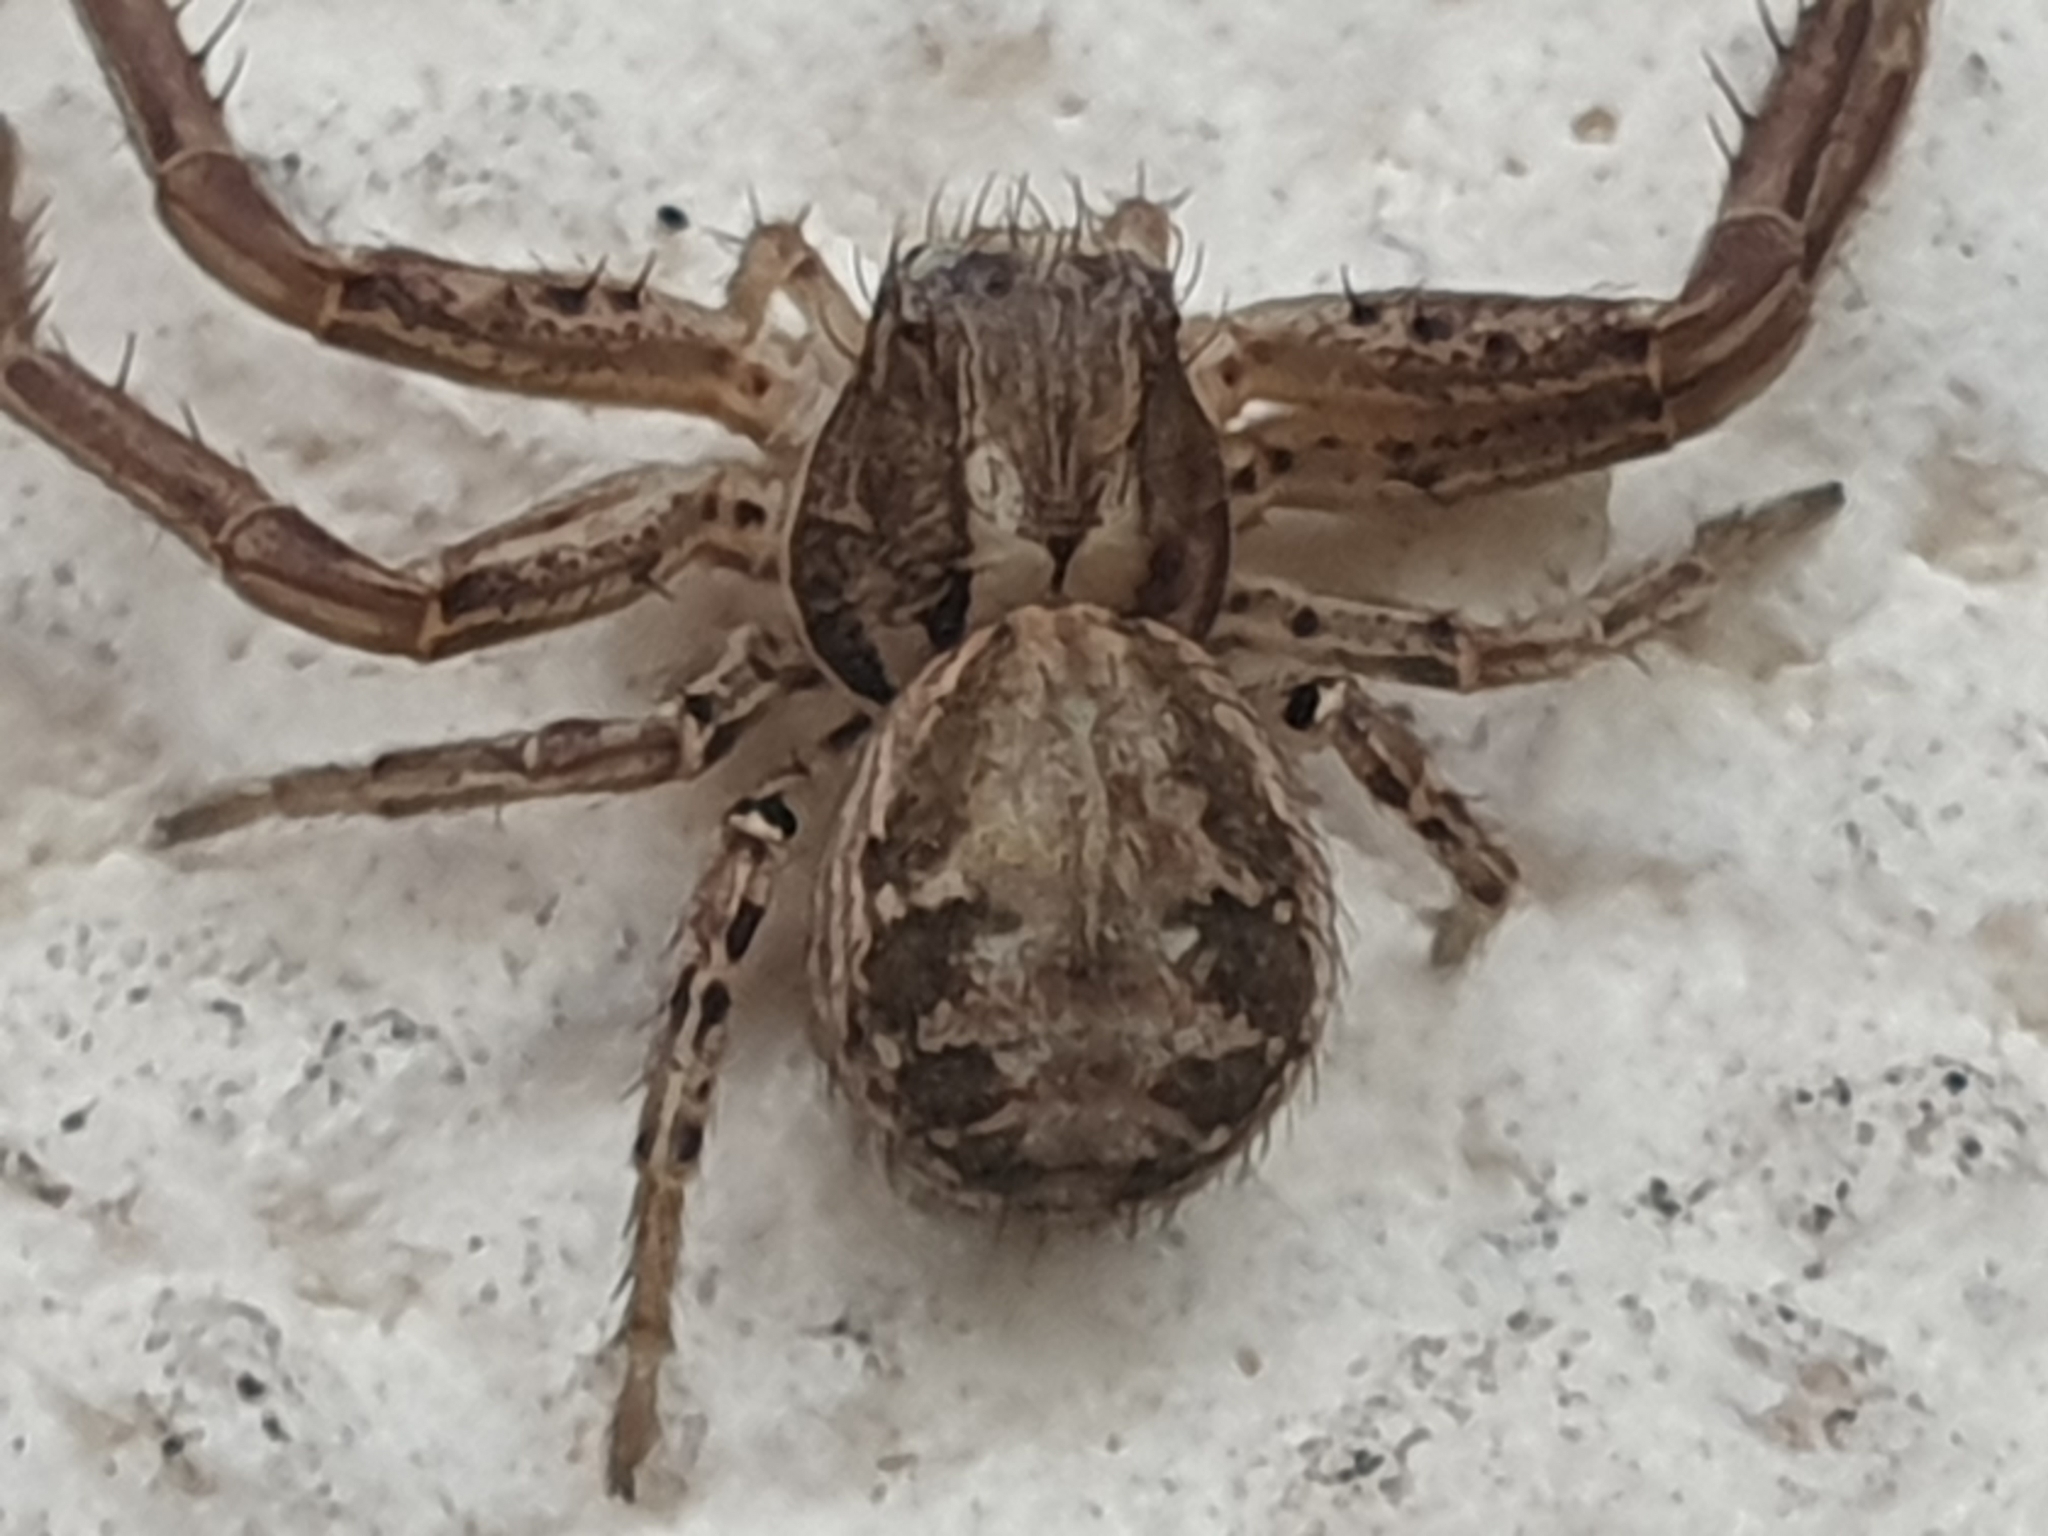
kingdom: Animalia
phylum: Arthropoda
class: Arachnida
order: Araneae
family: Thomisidae
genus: Xysticus
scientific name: Xysticus
